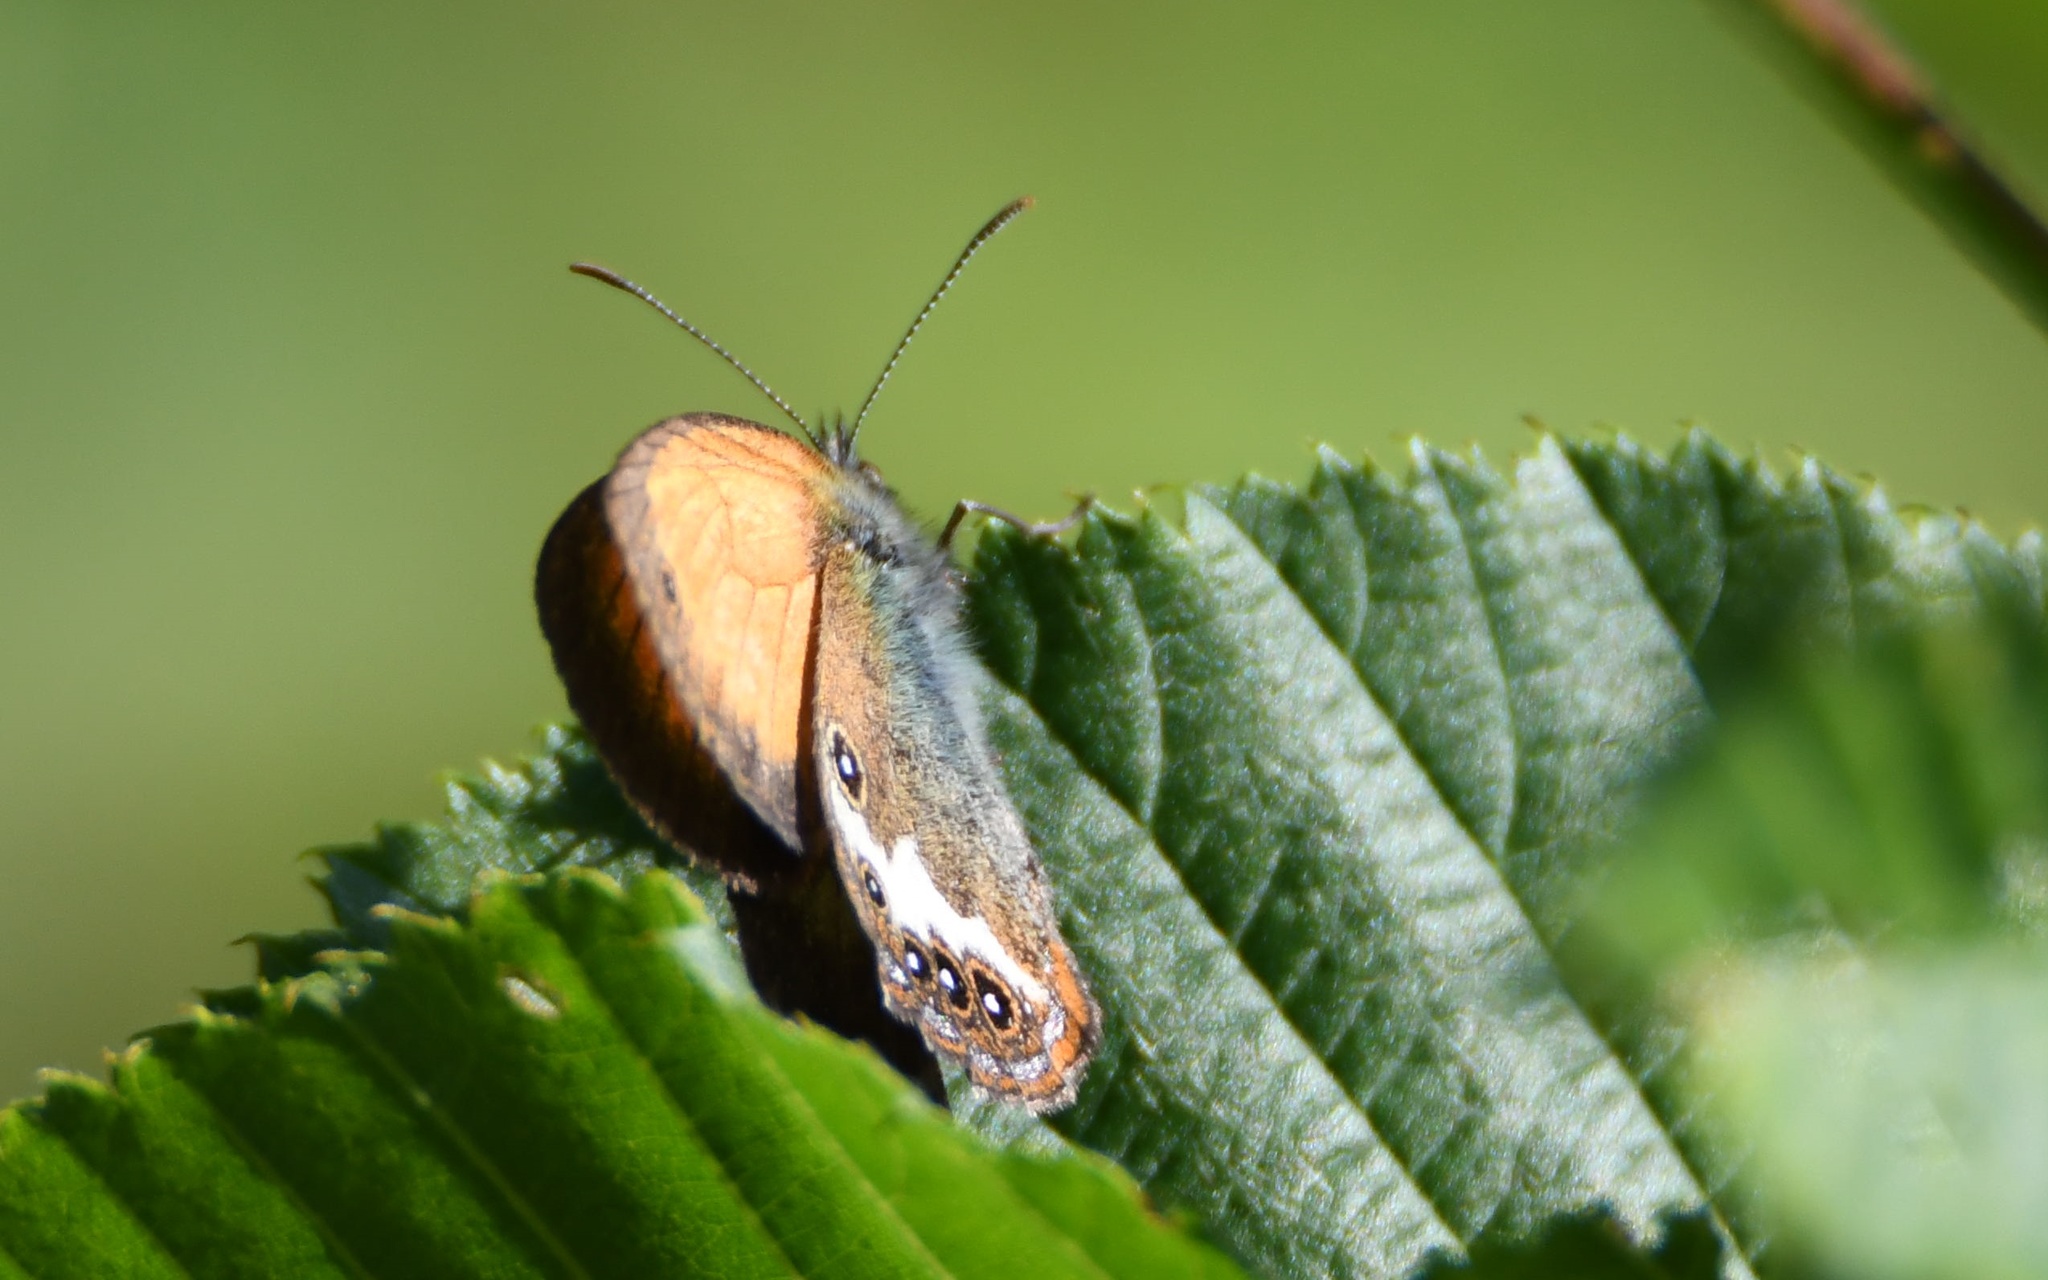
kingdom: Animalia
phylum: Arthropoda
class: Insecta
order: Lepidoptera
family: Nymphalidae
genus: Coenonympha
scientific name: Coenonympha arcania
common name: Pearly heath
